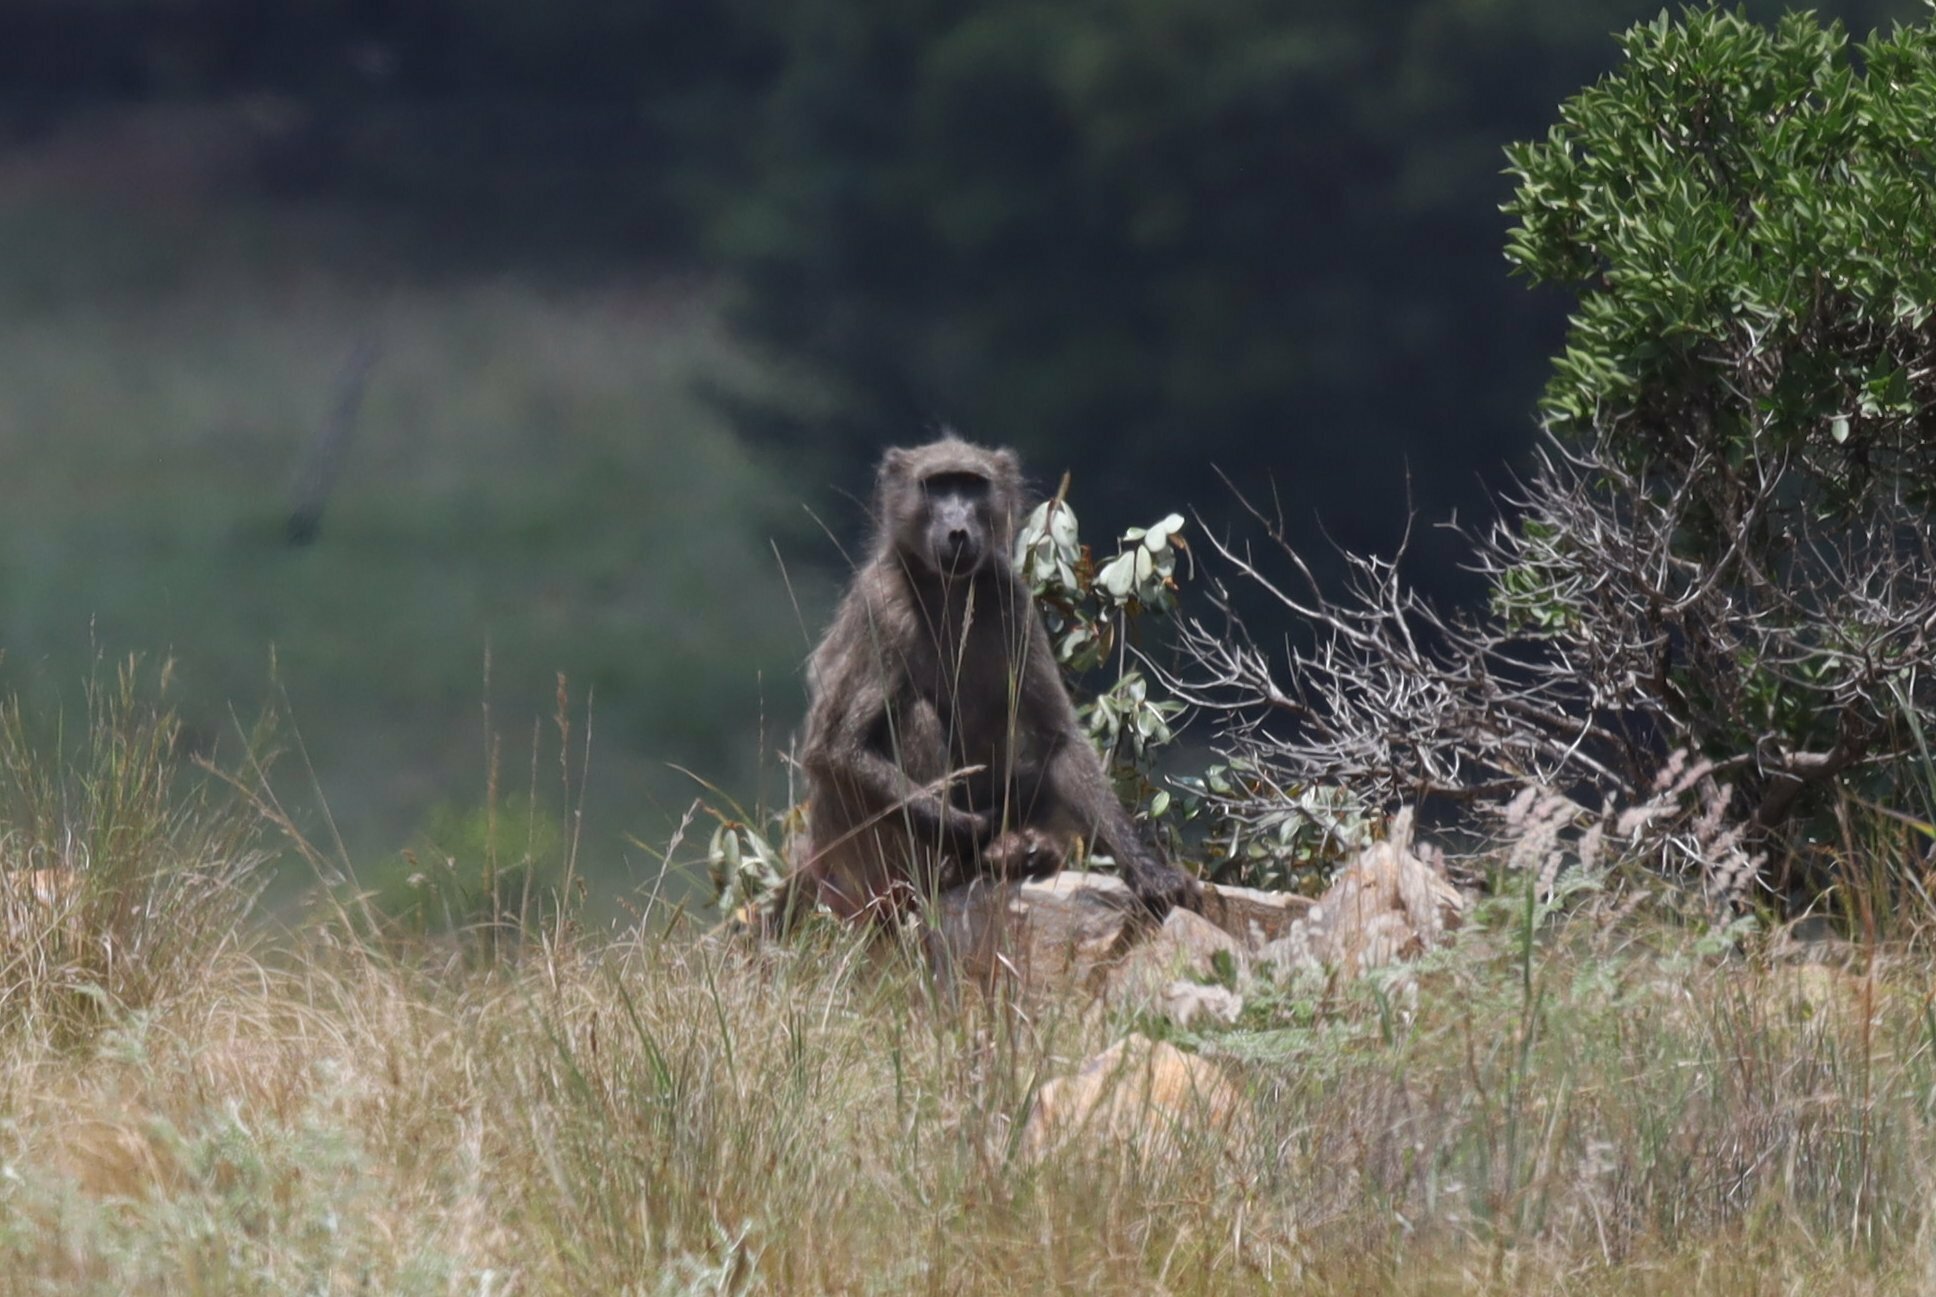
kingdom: Animalia
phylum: Chordata
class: Mammalia
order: Primates
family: Cercopithecidae
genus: Papio
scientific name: Papio ursinus
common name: Chacma baboon
